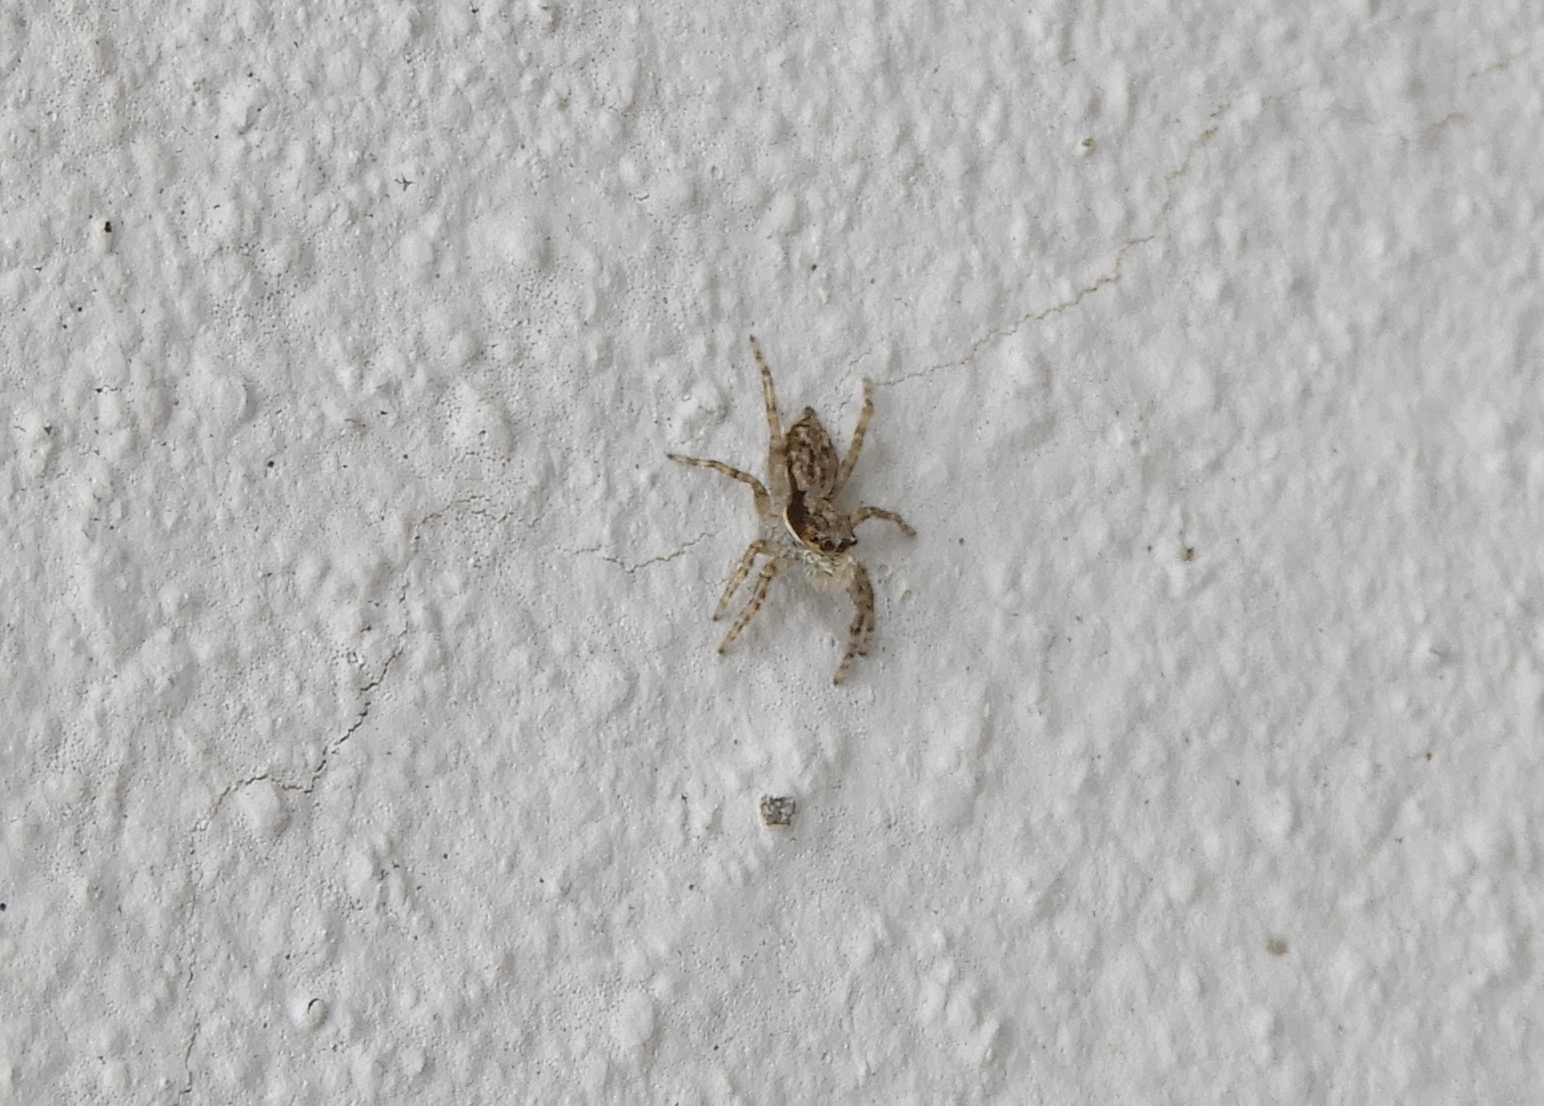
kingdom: Animalia
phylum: Arthropoda
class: Arachnida
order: Araneae
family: Salticidae
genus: Menemerus
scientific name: Menemerus bivittatus
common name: Gray wall jumper
